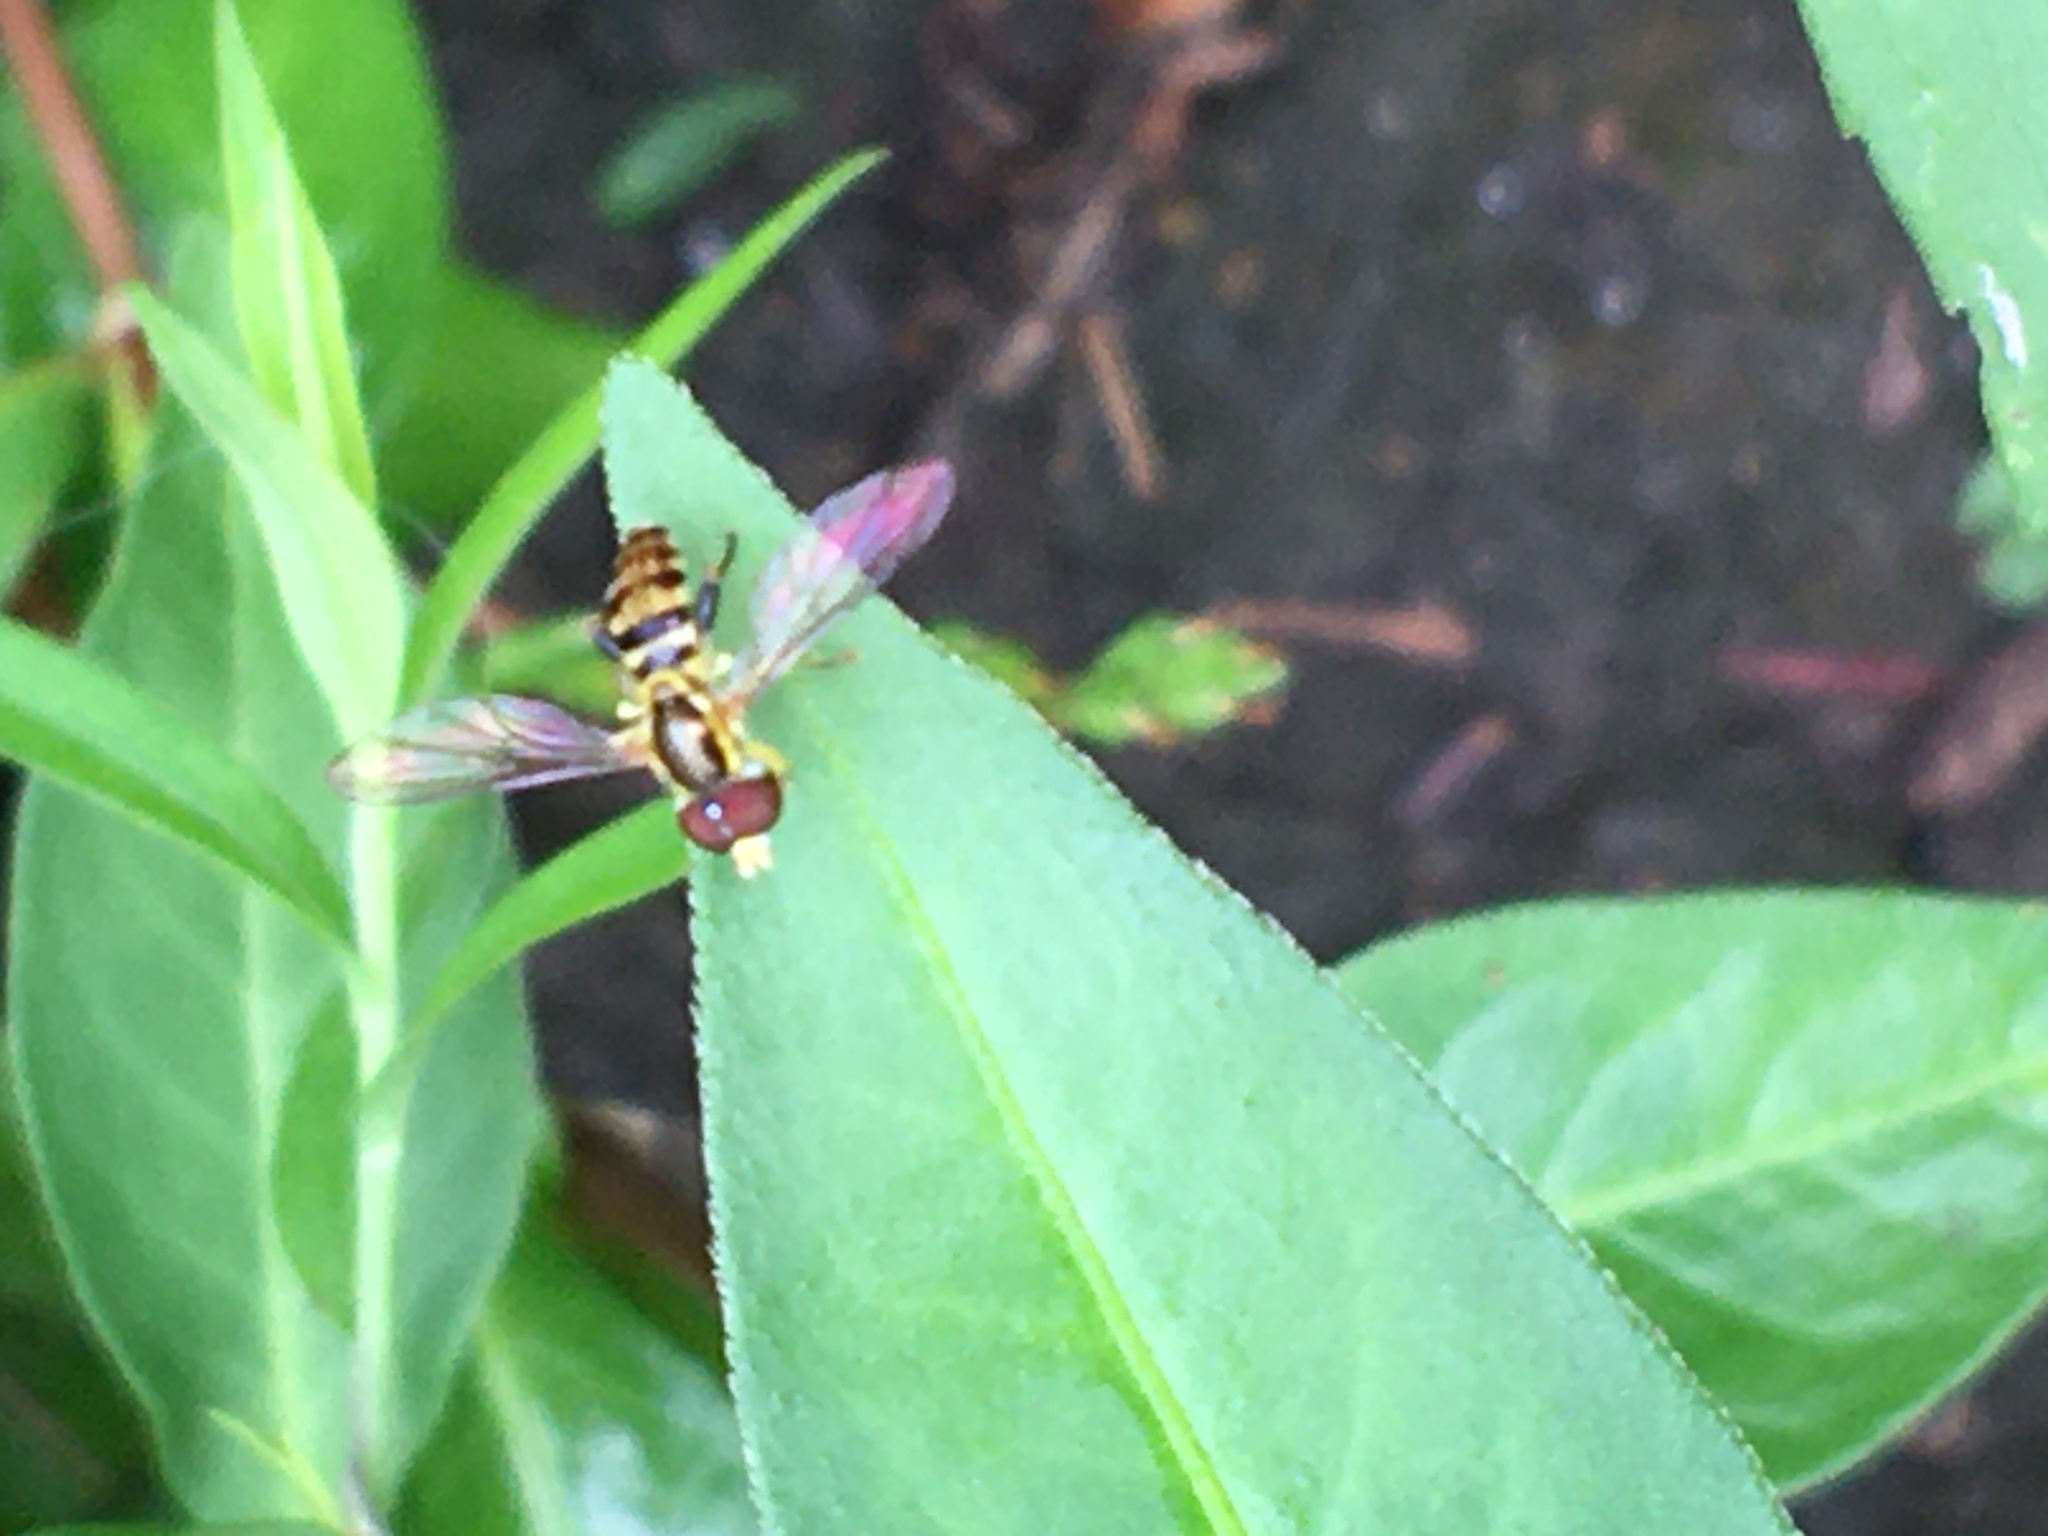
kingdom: Animalia
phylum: Arthropoda
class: Insecta
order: Diptera
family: Syrphidae
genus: Toxomerus
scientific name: Toxomerus geminatus
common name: Eastern calligrapher
